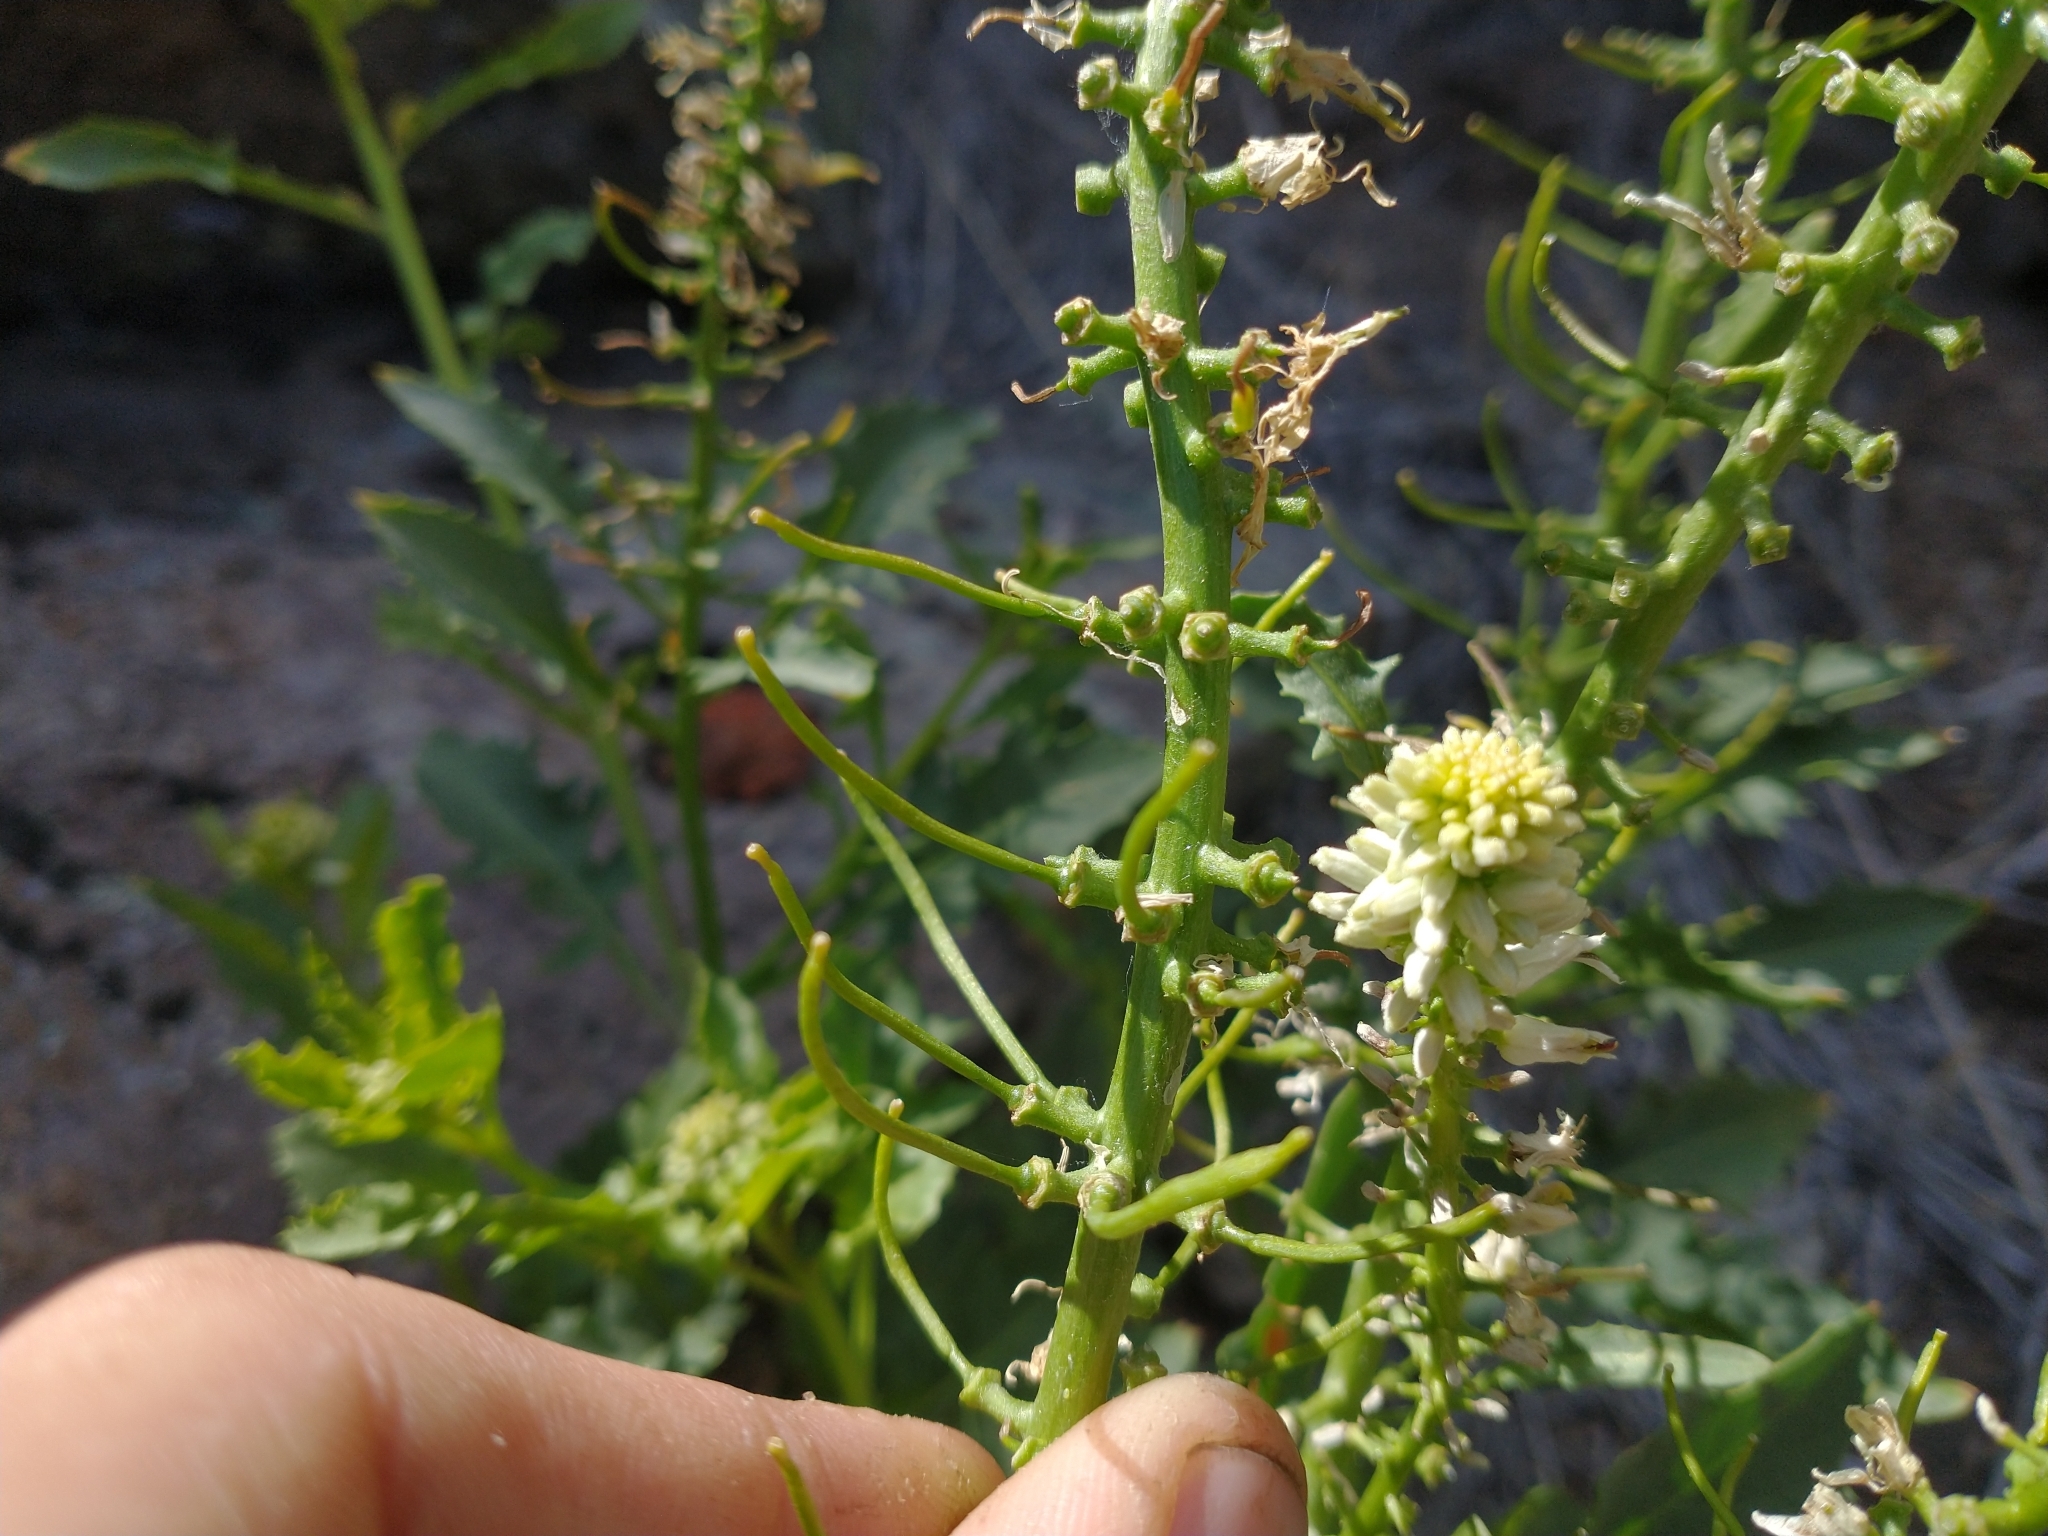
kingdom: Plantae
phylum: Tracheophyta
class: Magnoliopsida
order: Brassicales
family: Brassicaceae
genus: Thelypodium
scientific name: Thelypodium laciniatum
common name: Cut-leaved thelypody
